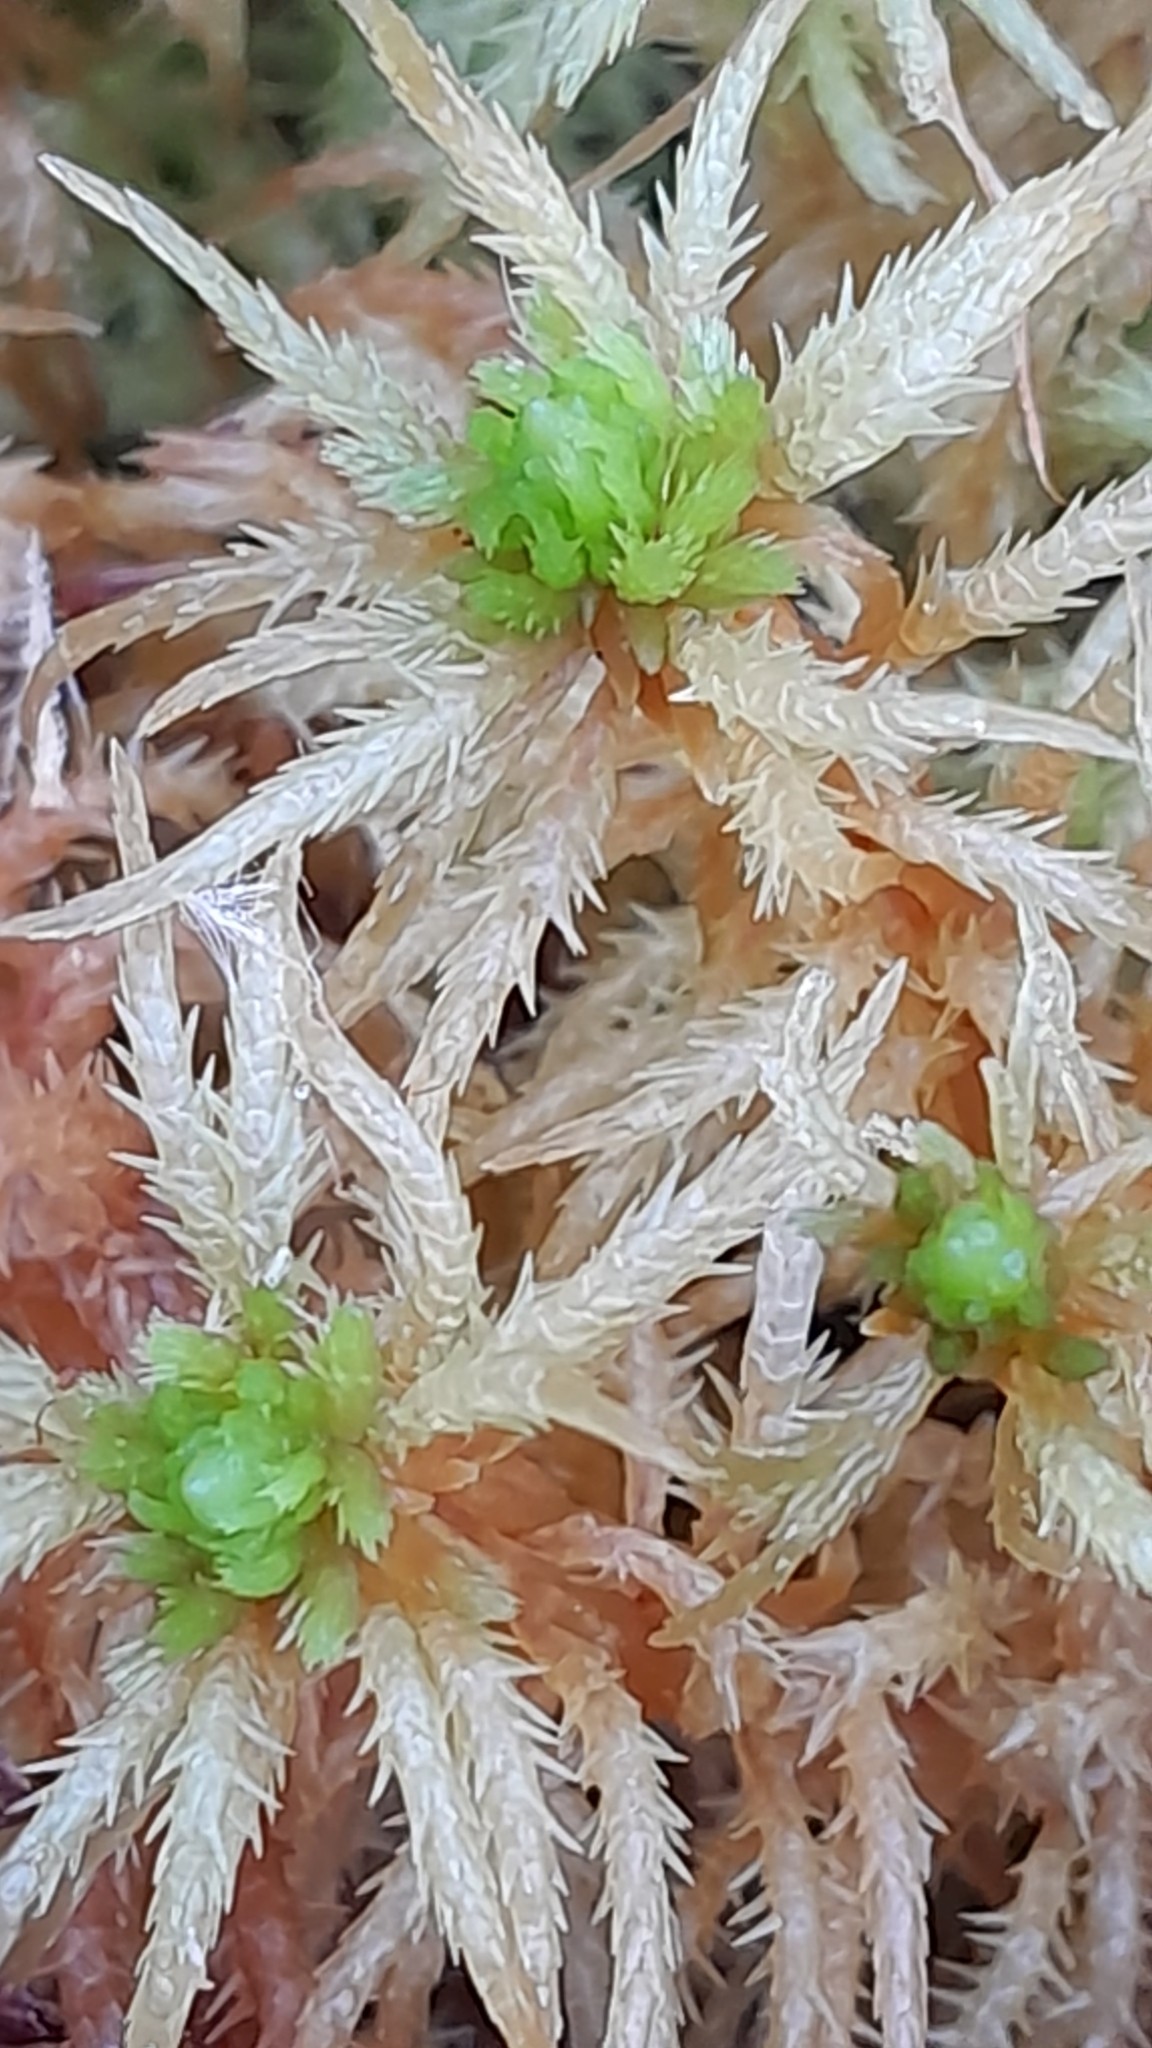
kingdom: Plantae
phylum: Bryophyta
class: Sphagnopsida
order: Sphagnales
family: Sphagnaceae
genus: Sphagnum
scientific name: Sphagnum squarrosum
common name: Shaggy peat moss
